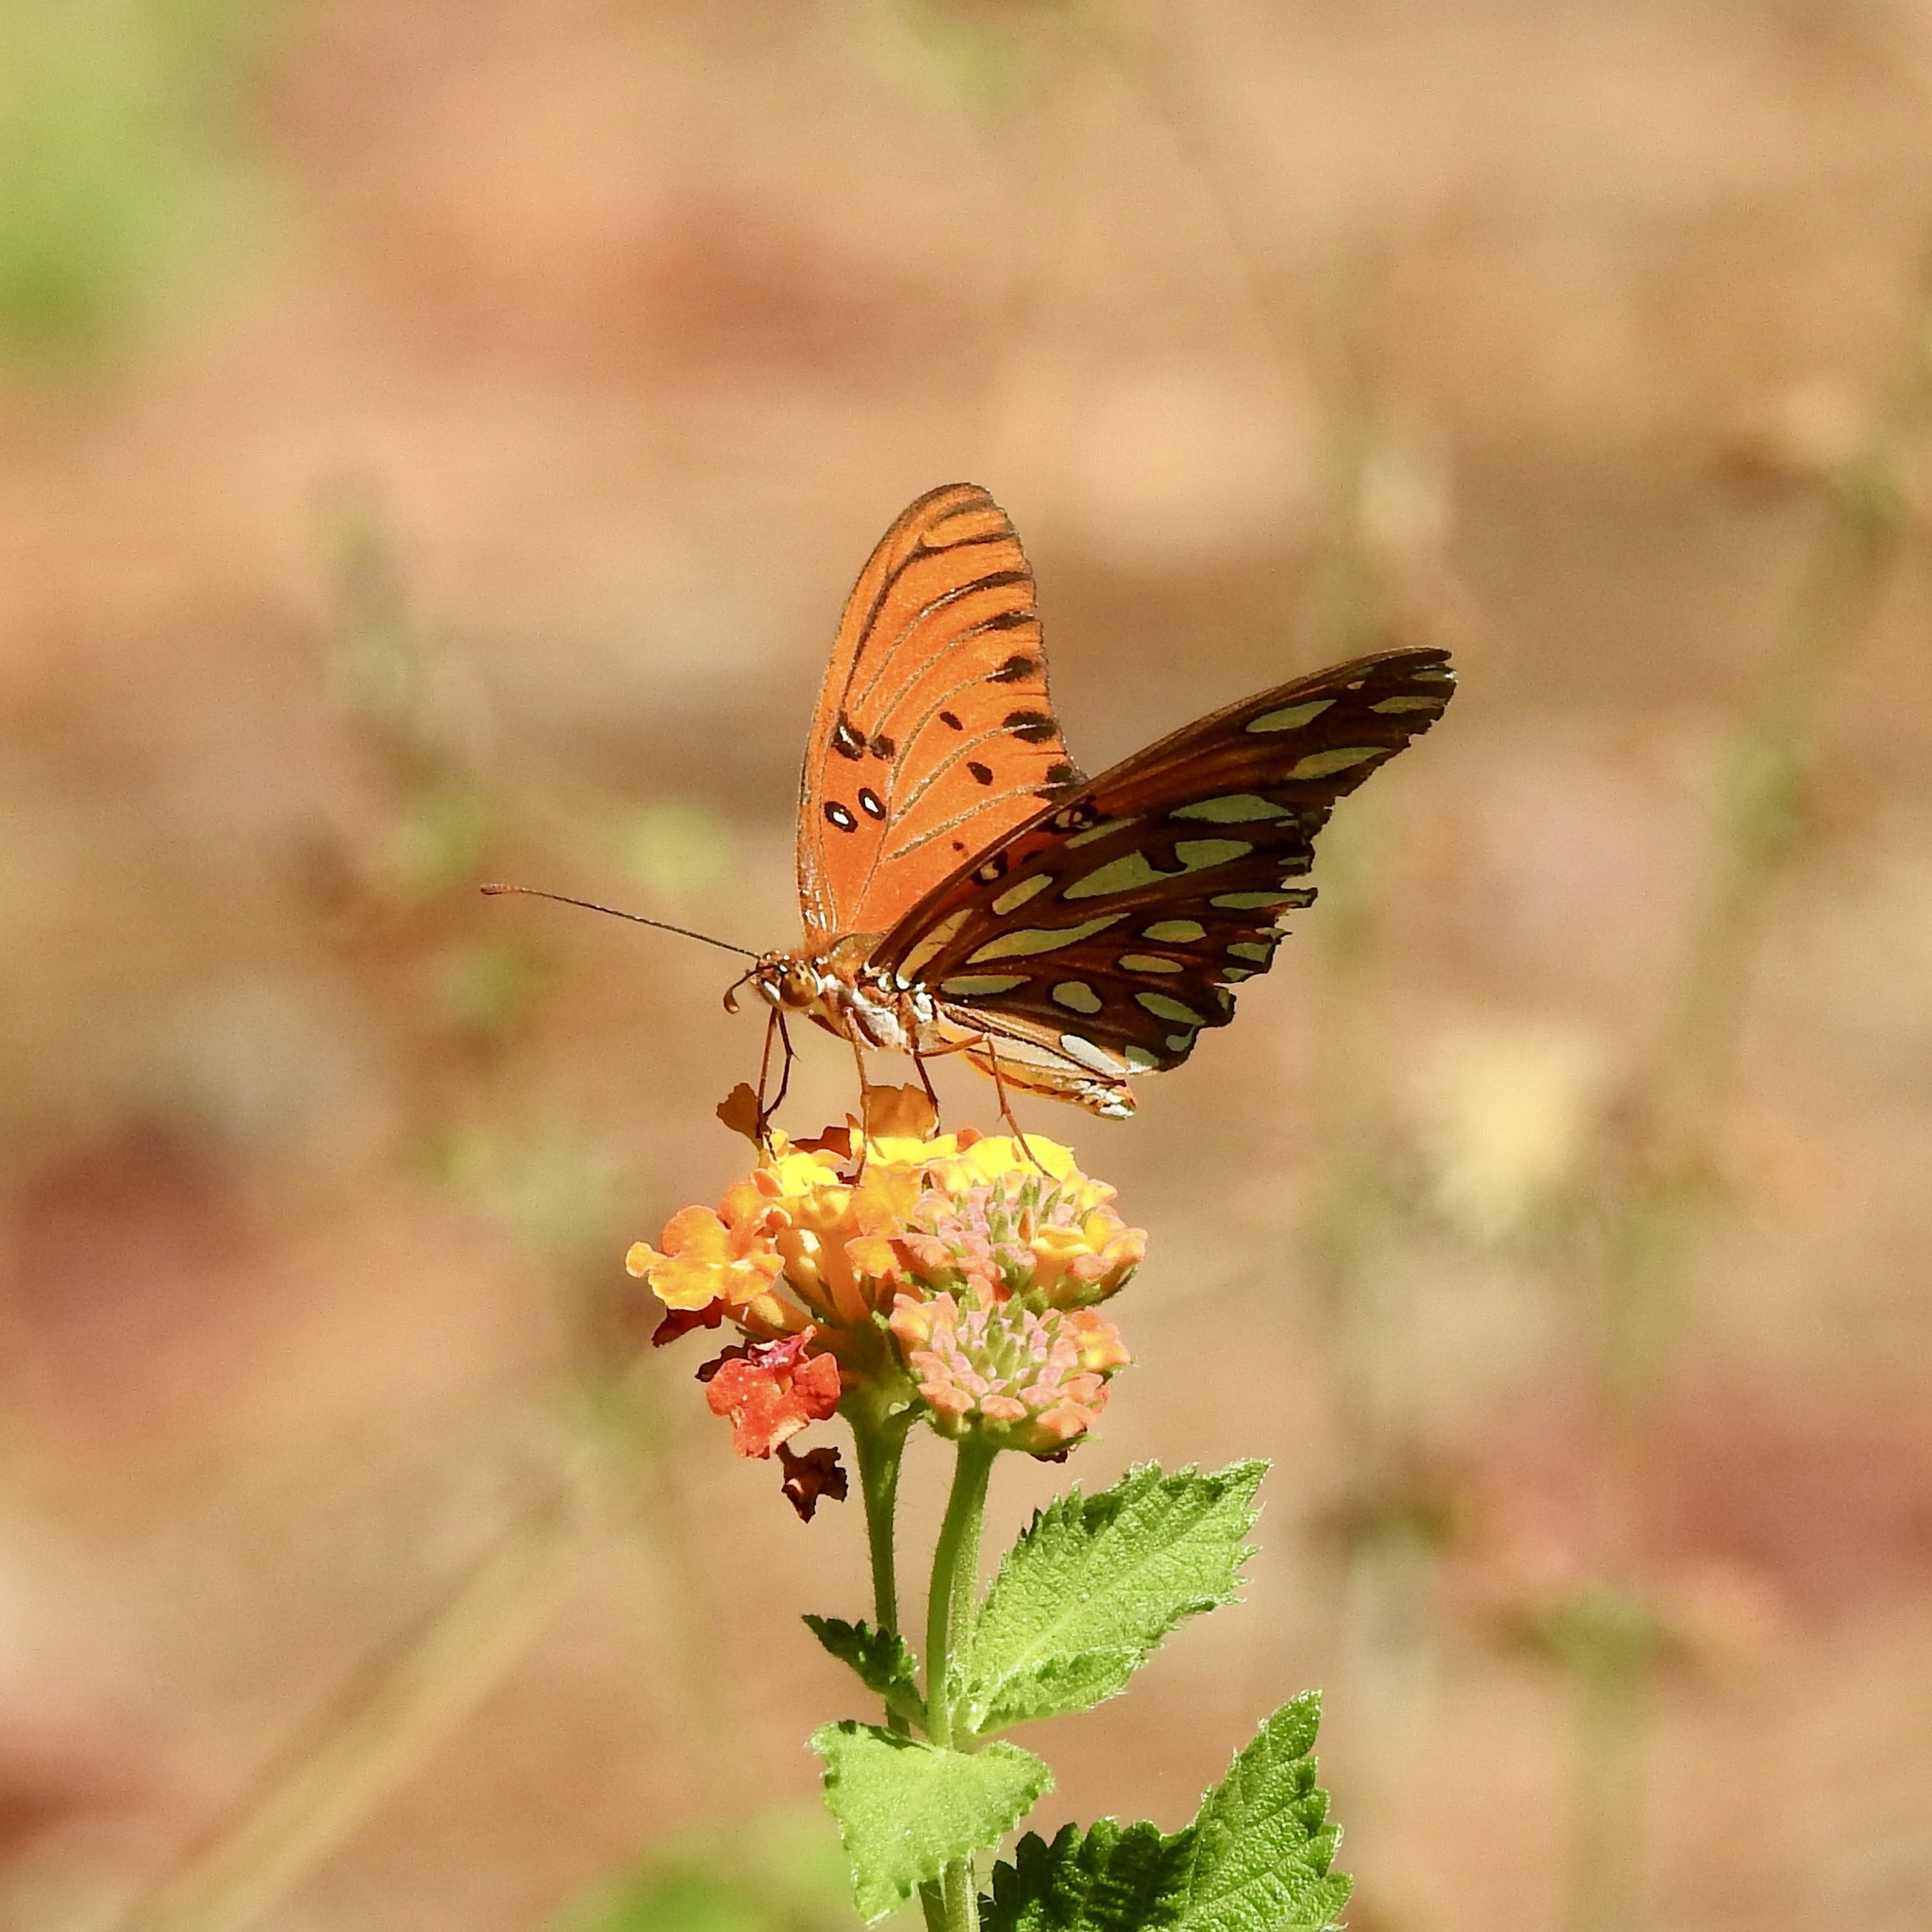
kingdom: Animalia
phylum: Arthropoda
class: Insecta
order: Lepidoptera
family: Nymphalidae
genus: Dione
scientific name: Dione vanillae
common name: Gulf fritillary
